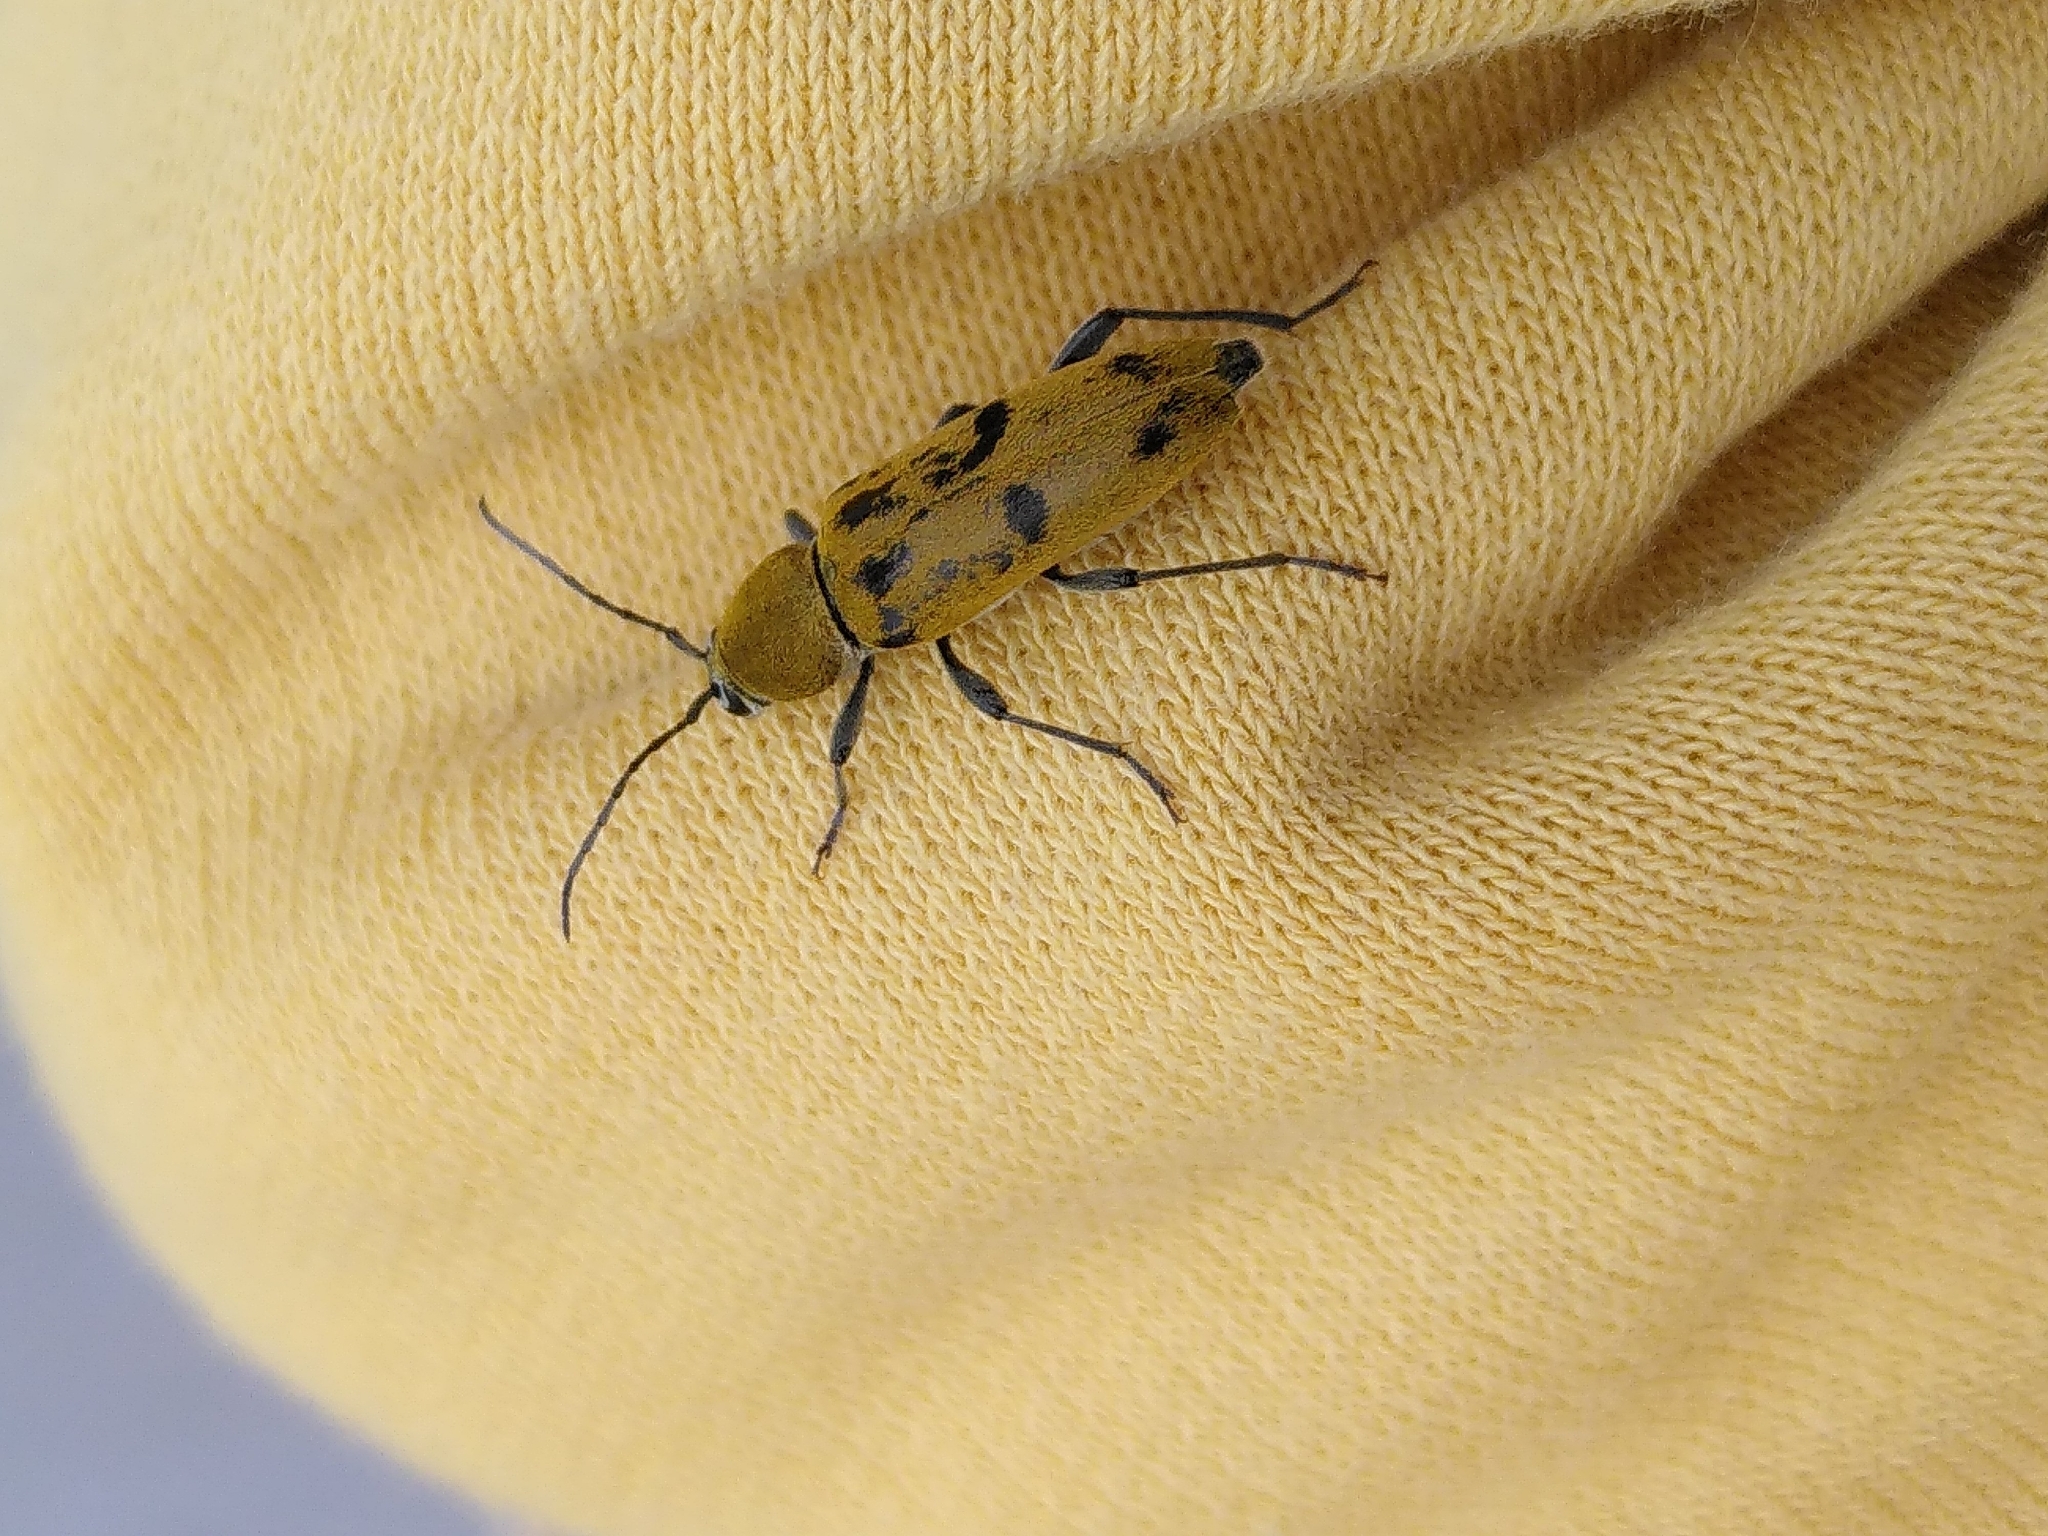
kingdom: Animalia
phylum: Arthropoda
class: Insecta
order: Coleoptera
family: Cerambycidae
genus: Chlorophorus
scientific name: Chlorophorus glabromaculatus
